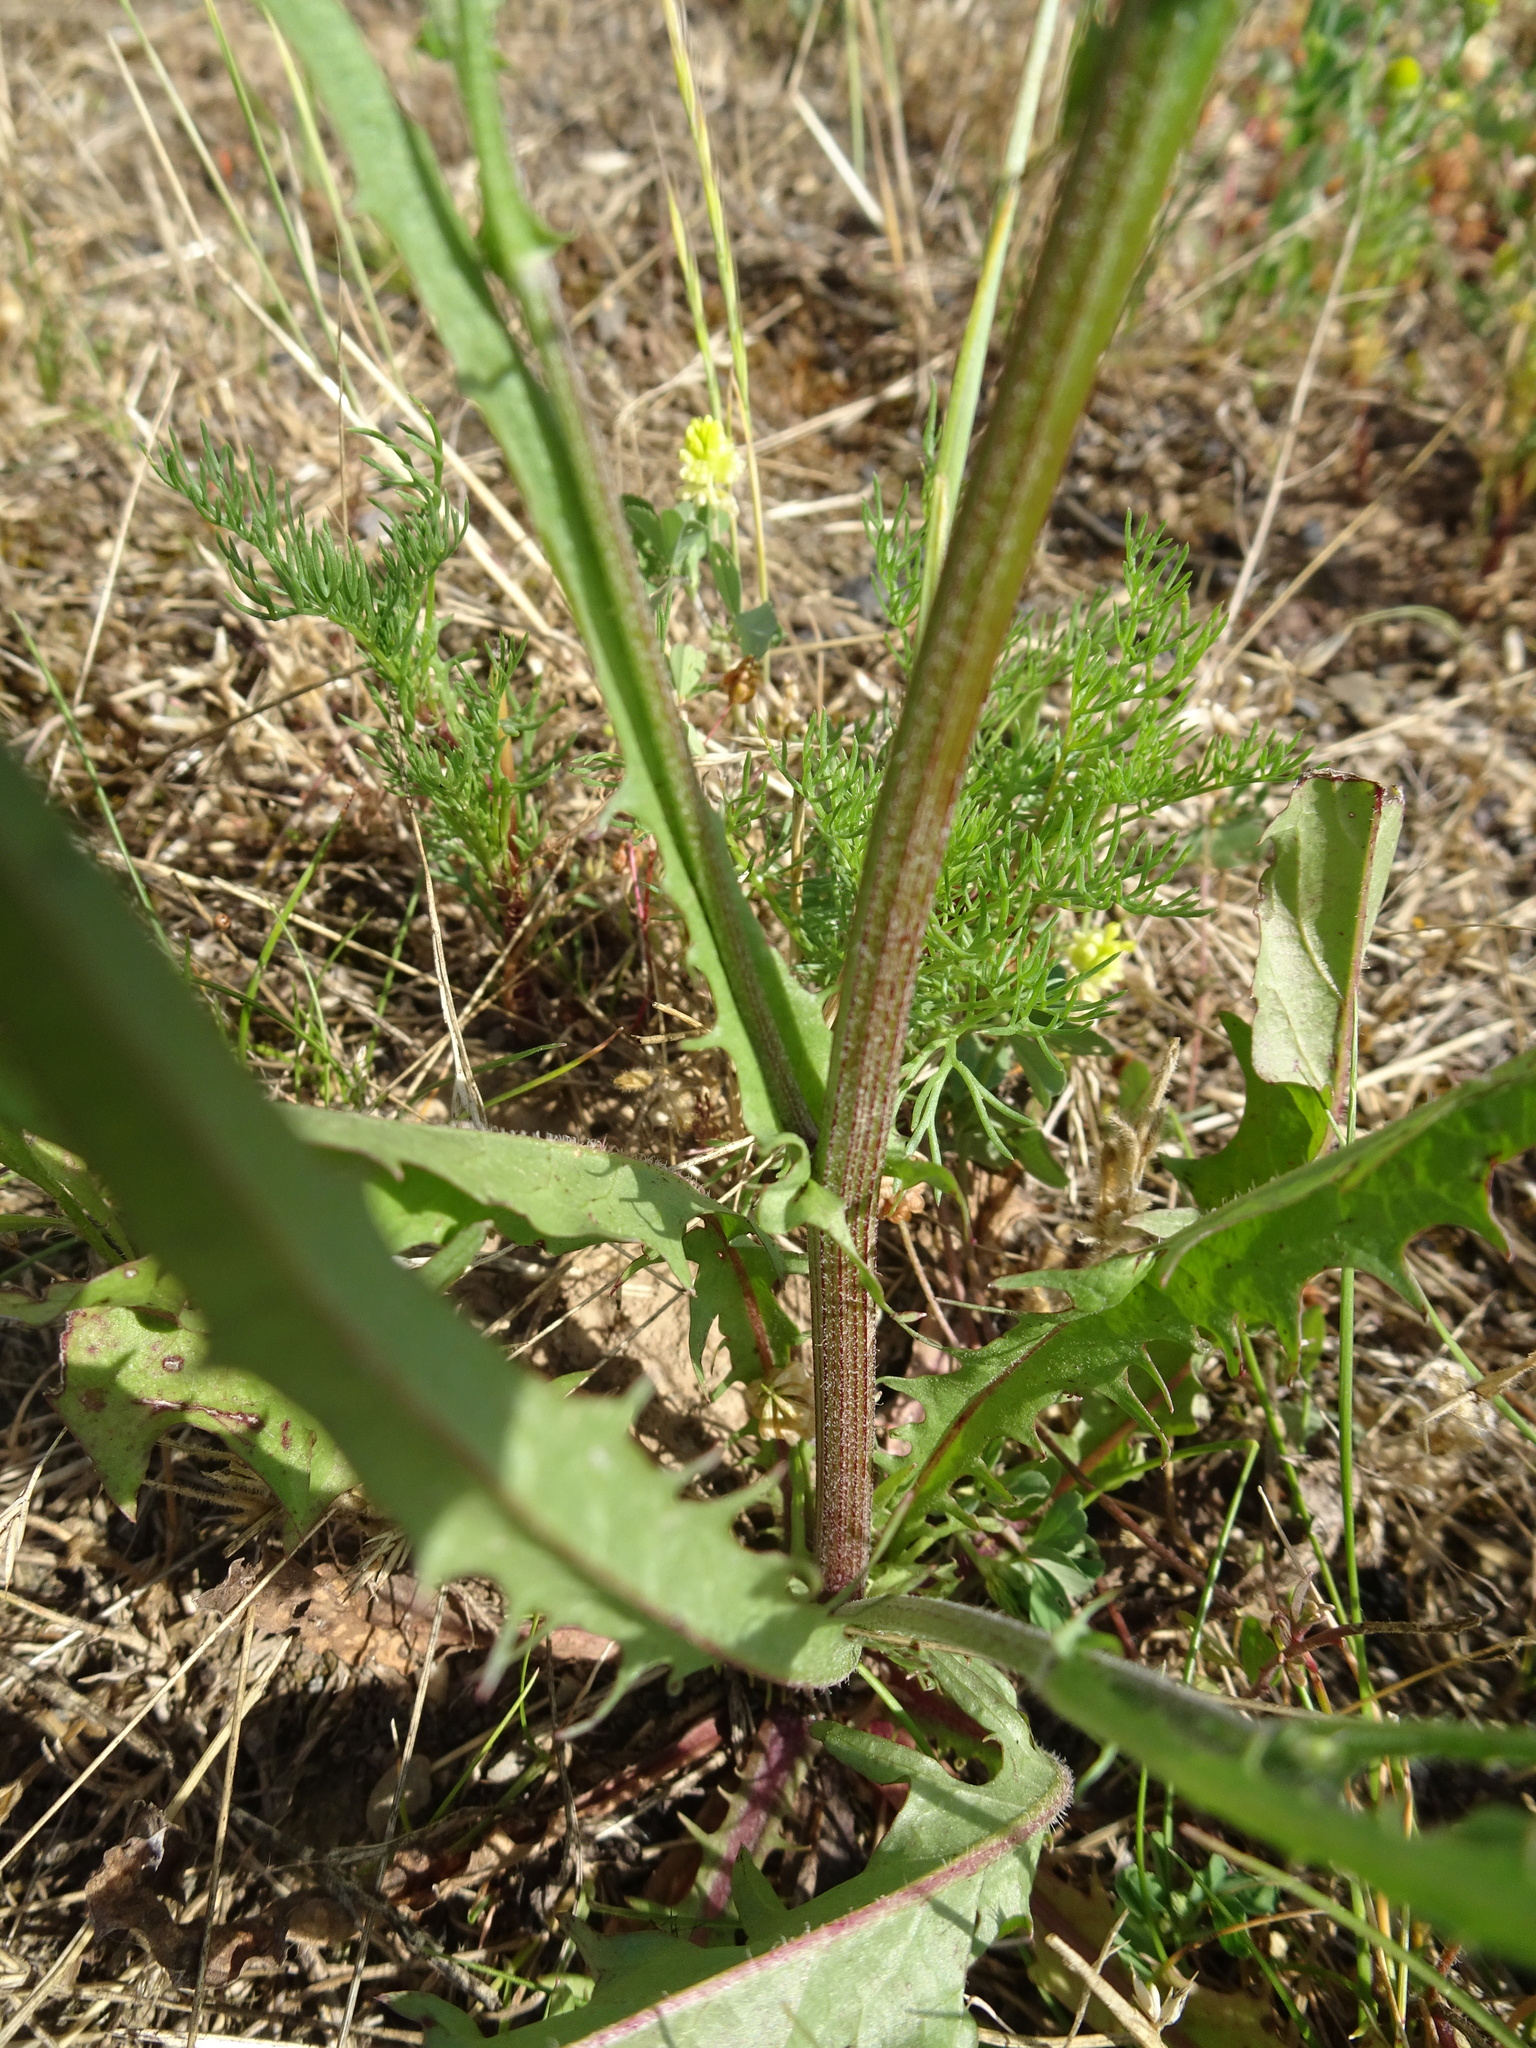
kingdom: Plantae
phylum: Tracheophyta
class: Magnoliopsida
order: Asterales
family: Asteraceae
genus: Crepis
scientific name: Crepis biennis
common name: Rough hawk's-beard
